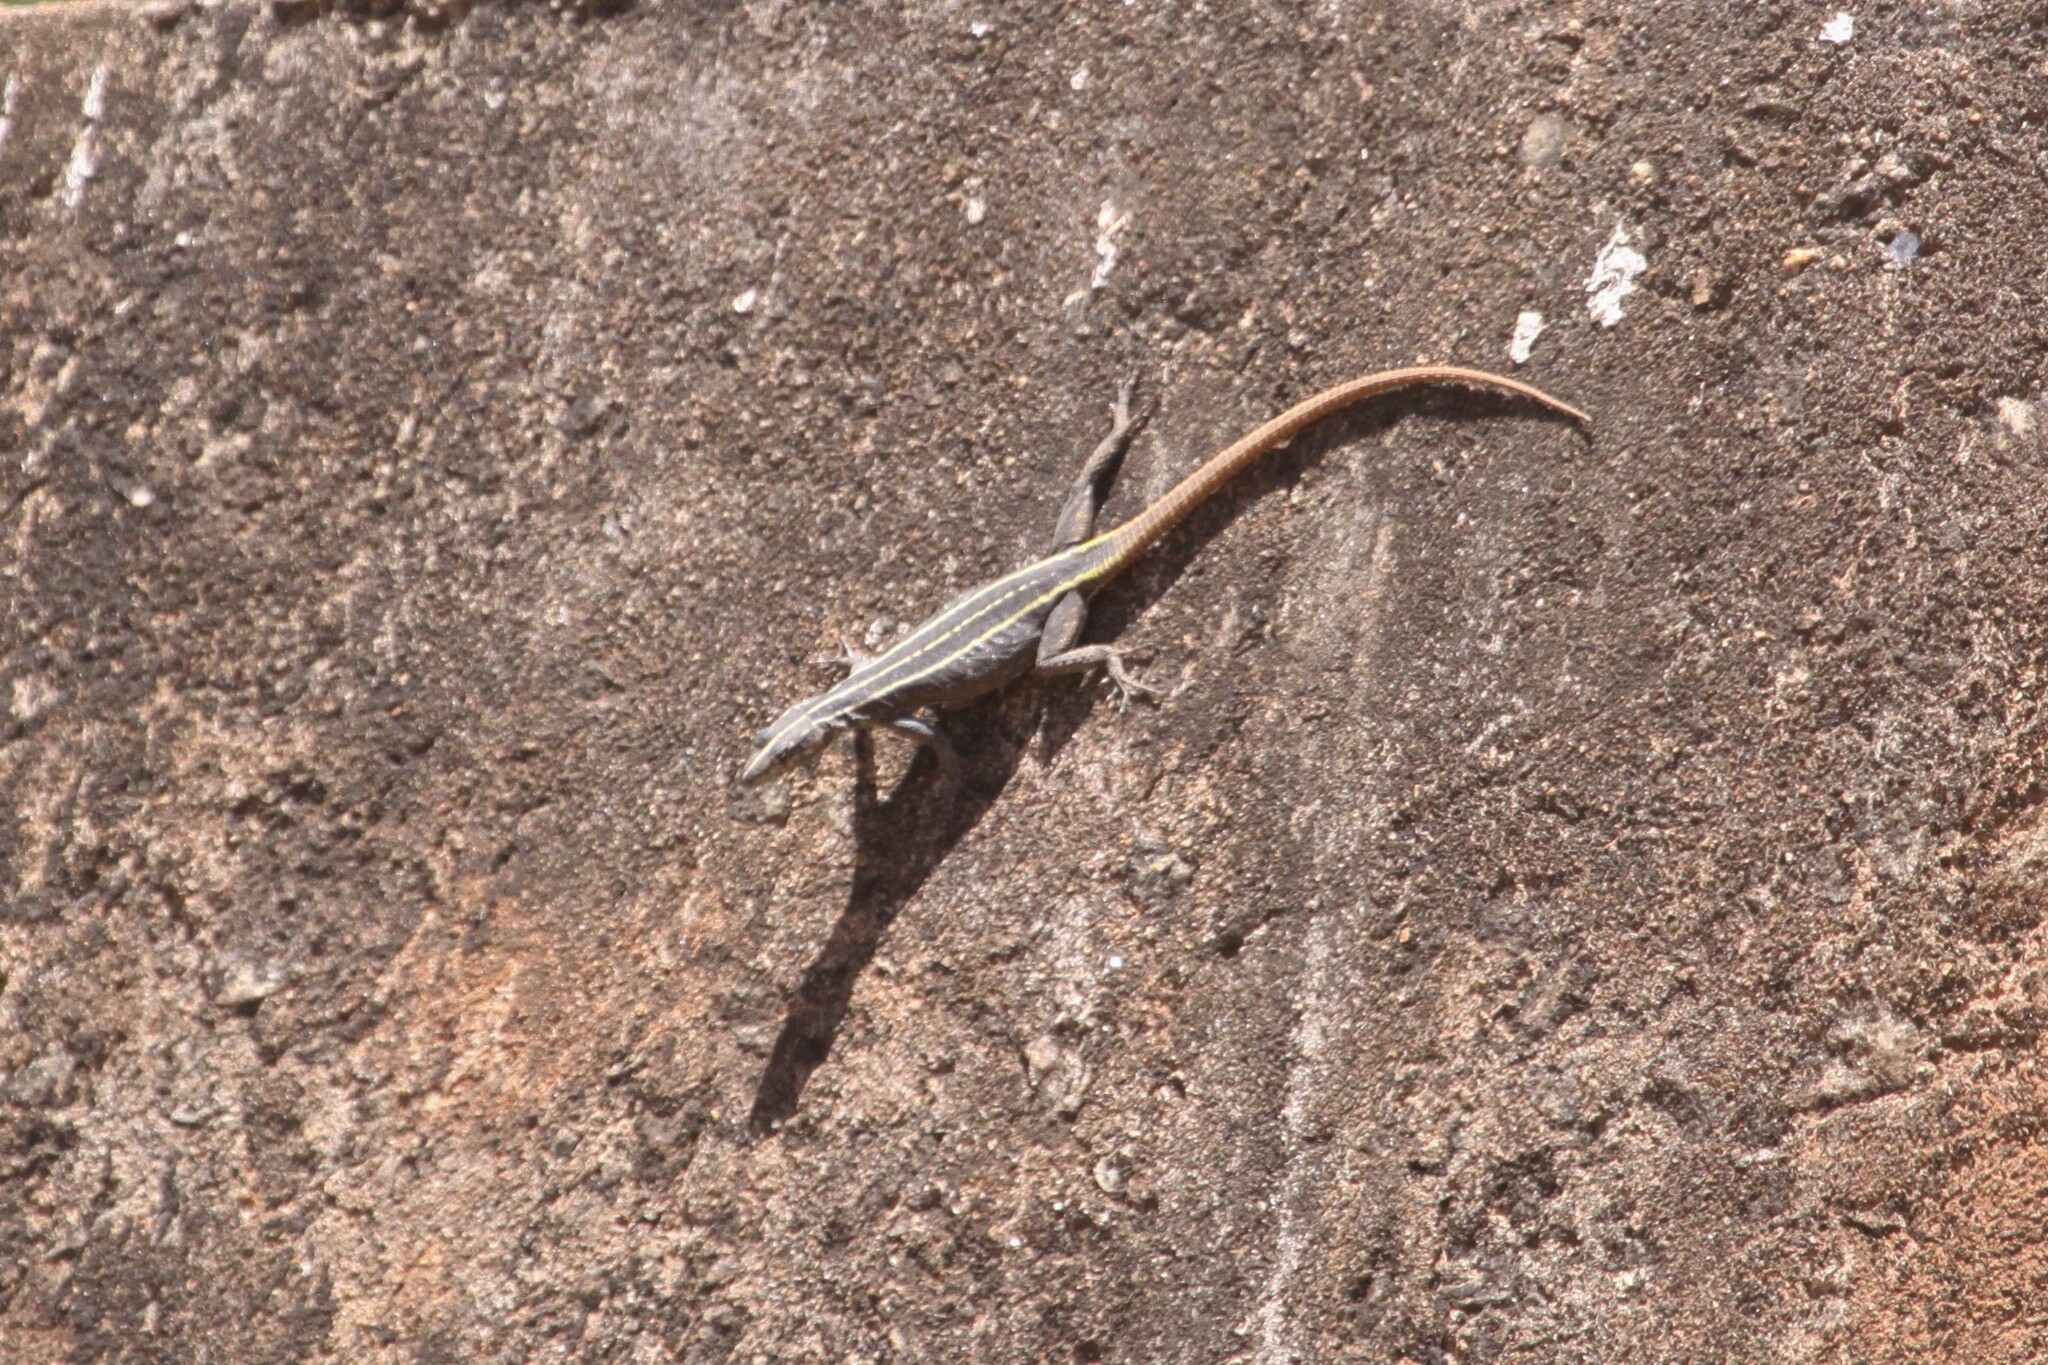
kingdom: Animalia
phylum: Chordata
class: Squamata
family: Cordylidae
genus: Platysaurus
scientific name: Platysaurus intermedius
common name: Common flat lizard
